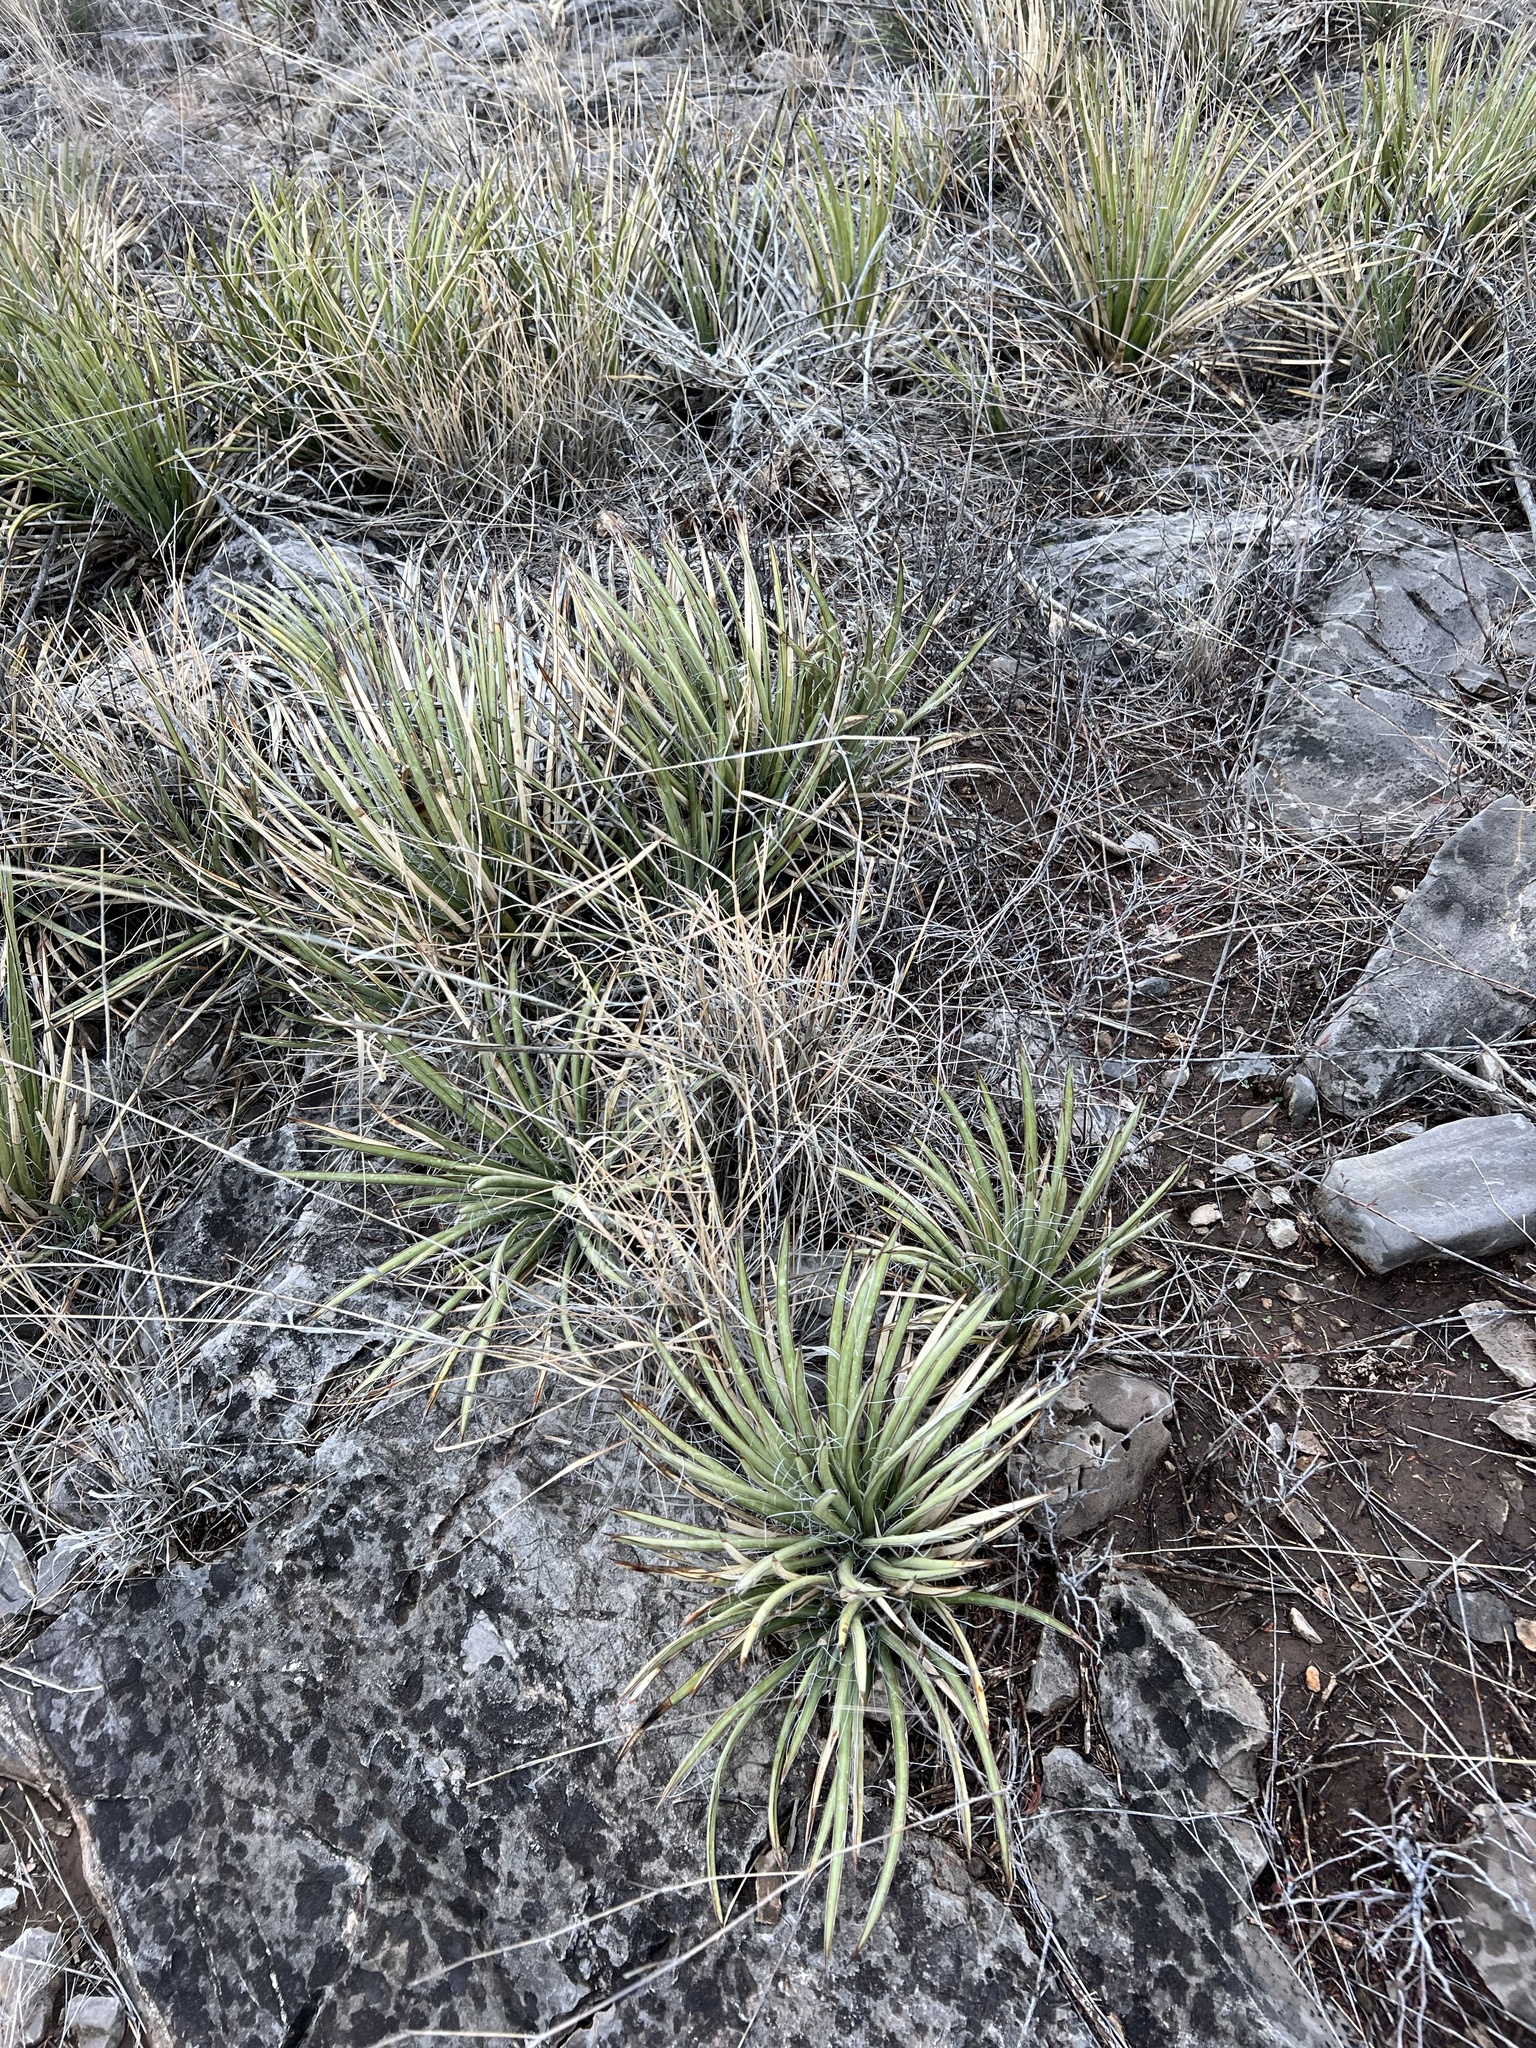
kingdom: Plantae
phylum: Tracheophyta
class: Liliopsida
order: Asparagales
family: Asparagaceae
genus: Agave
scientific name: Agave schottii
